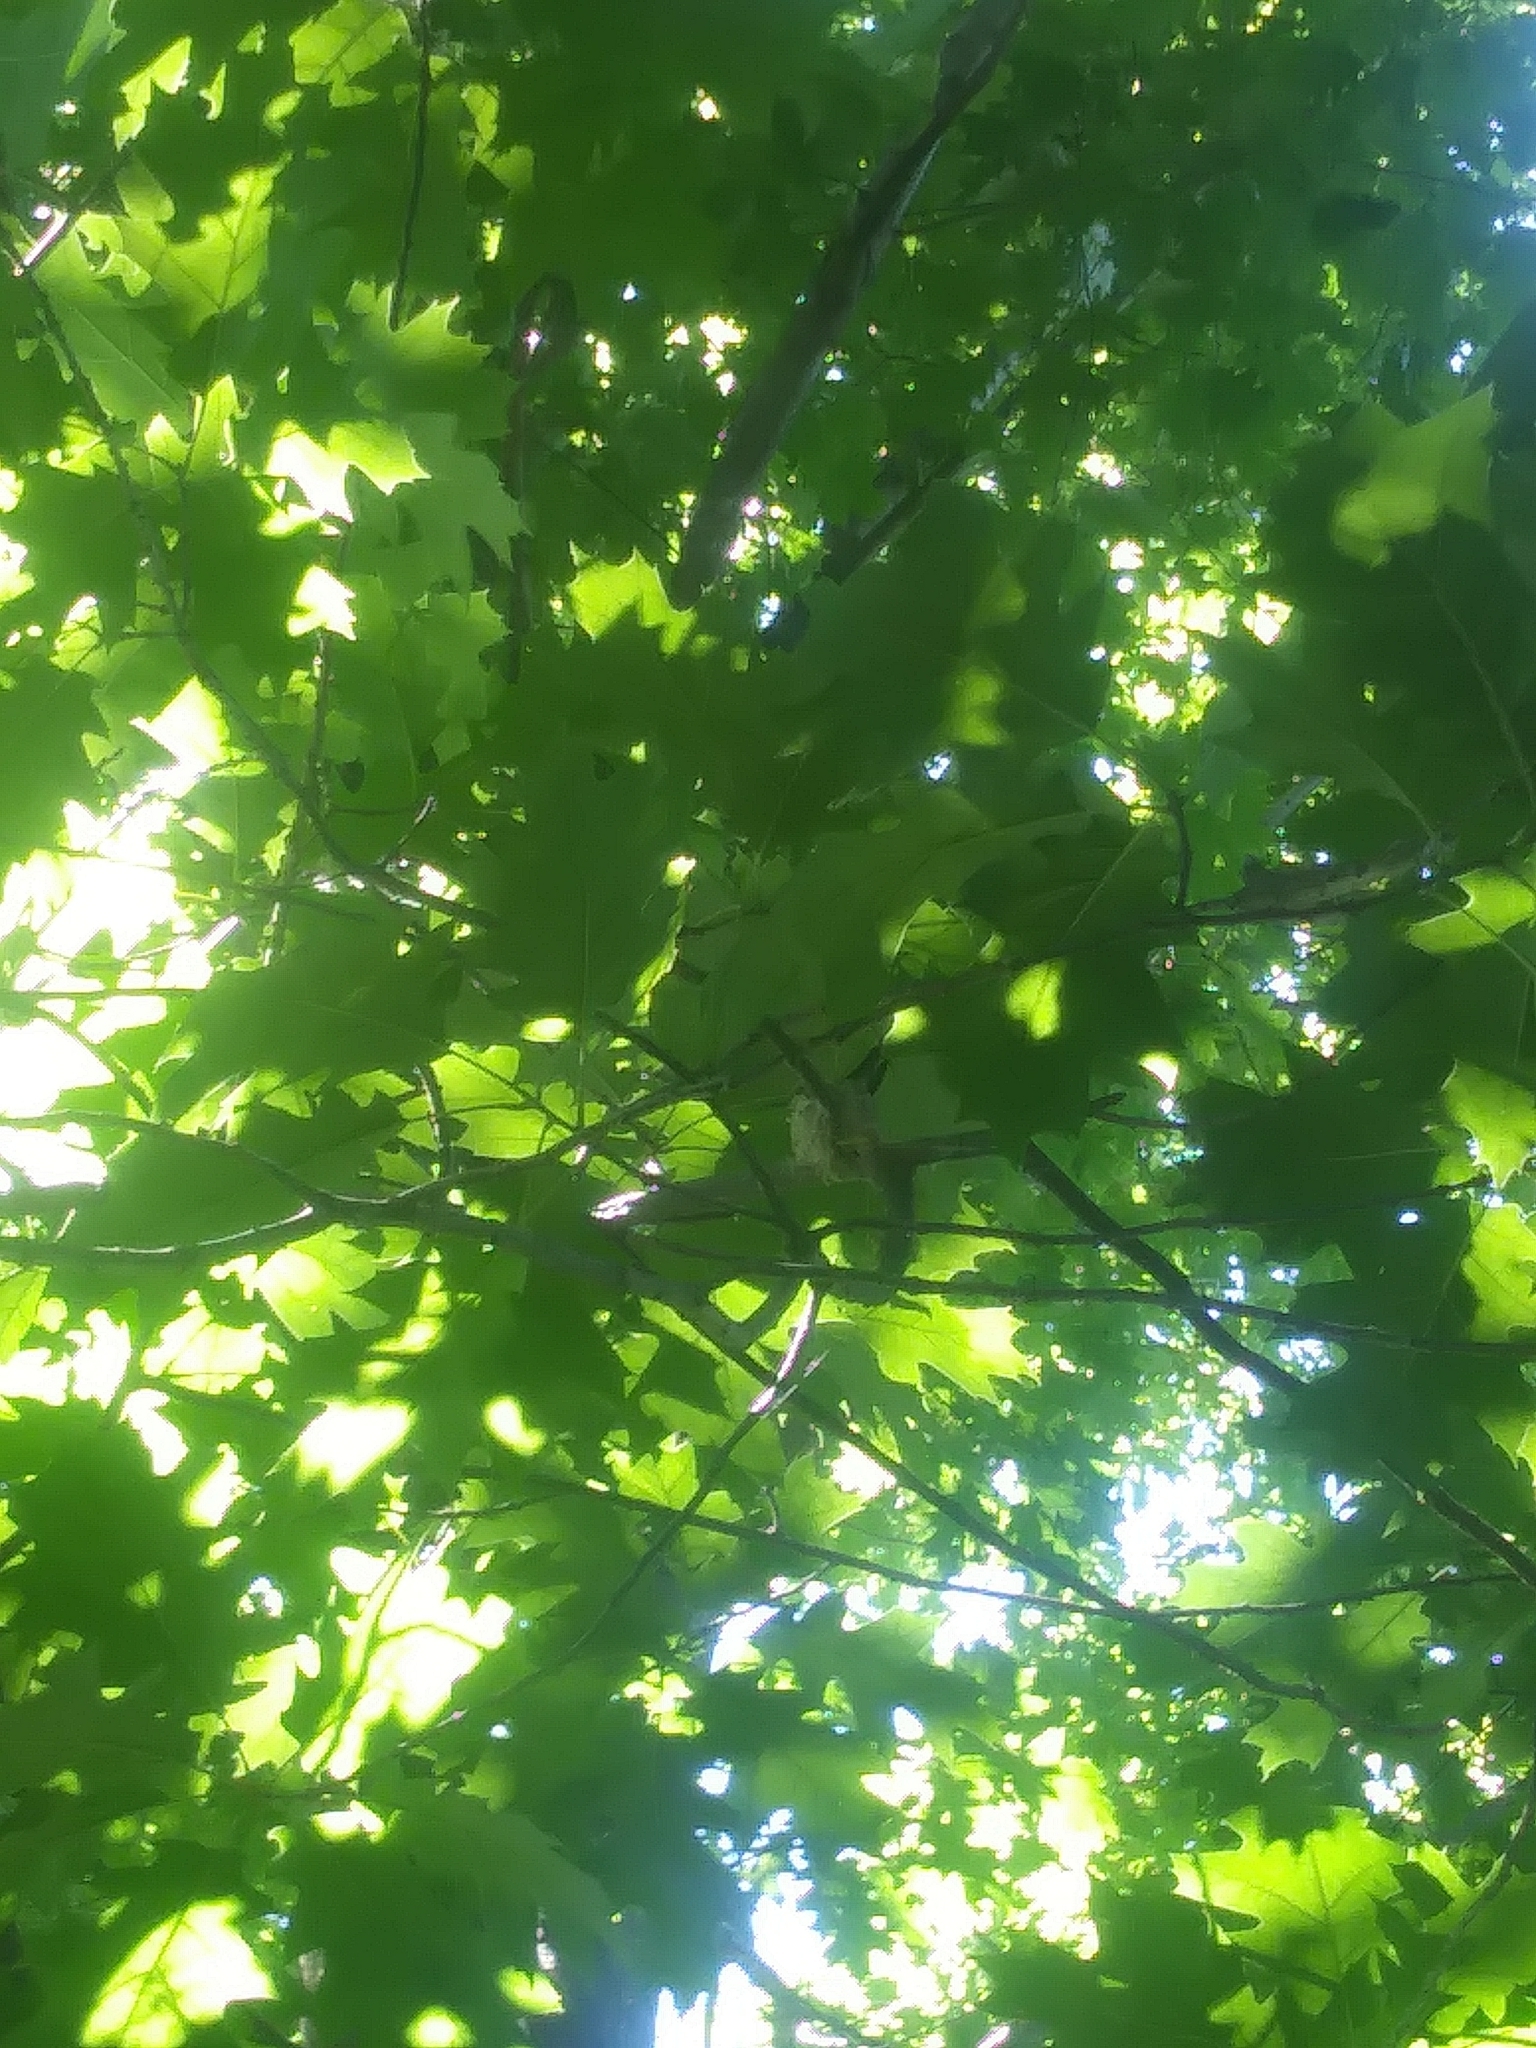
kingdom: Animalia
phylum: Chordata
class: Aves
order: Apodiformes
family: Trochilidae
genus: Archilochus
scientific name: Archilochus alexandri
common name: Black-chinned hummingbird
